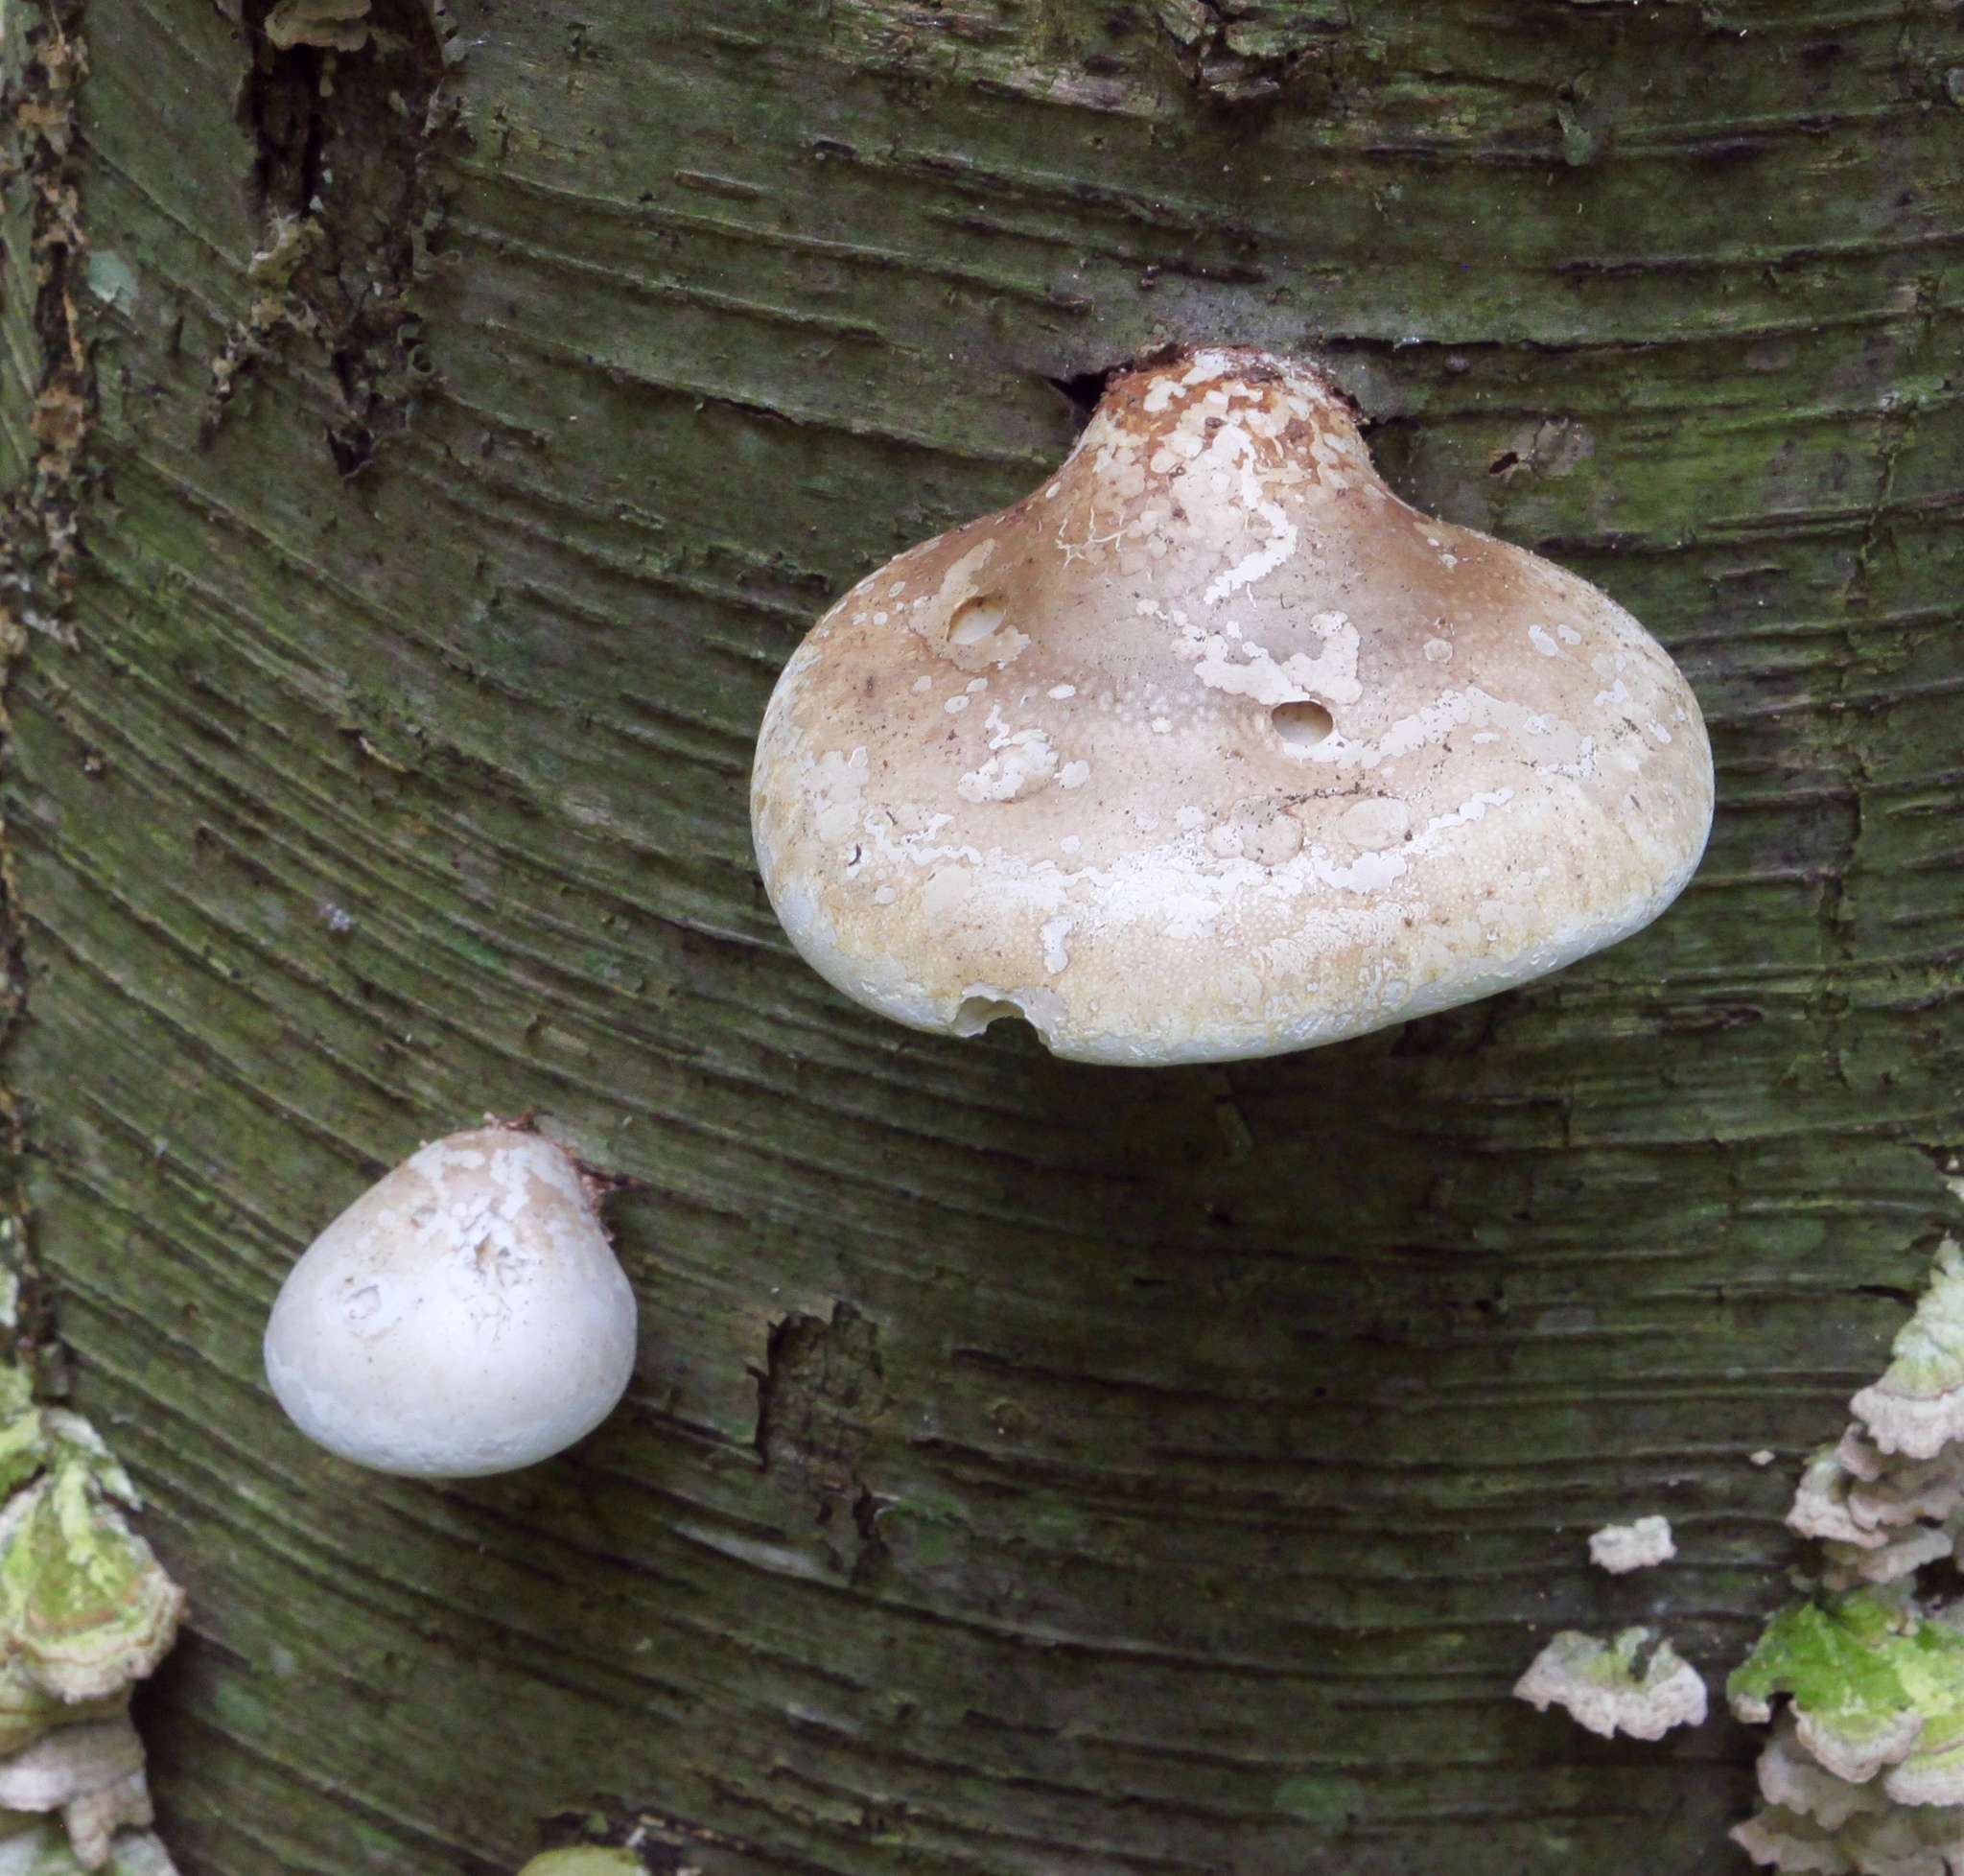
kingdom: Fungi
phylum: Basidiomycota
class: Agaricomycetes
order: Polyporales
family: Fomitopsidaceae
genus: Fomitopsis
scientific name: Fomitopsis betulina
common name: Birch polypore
